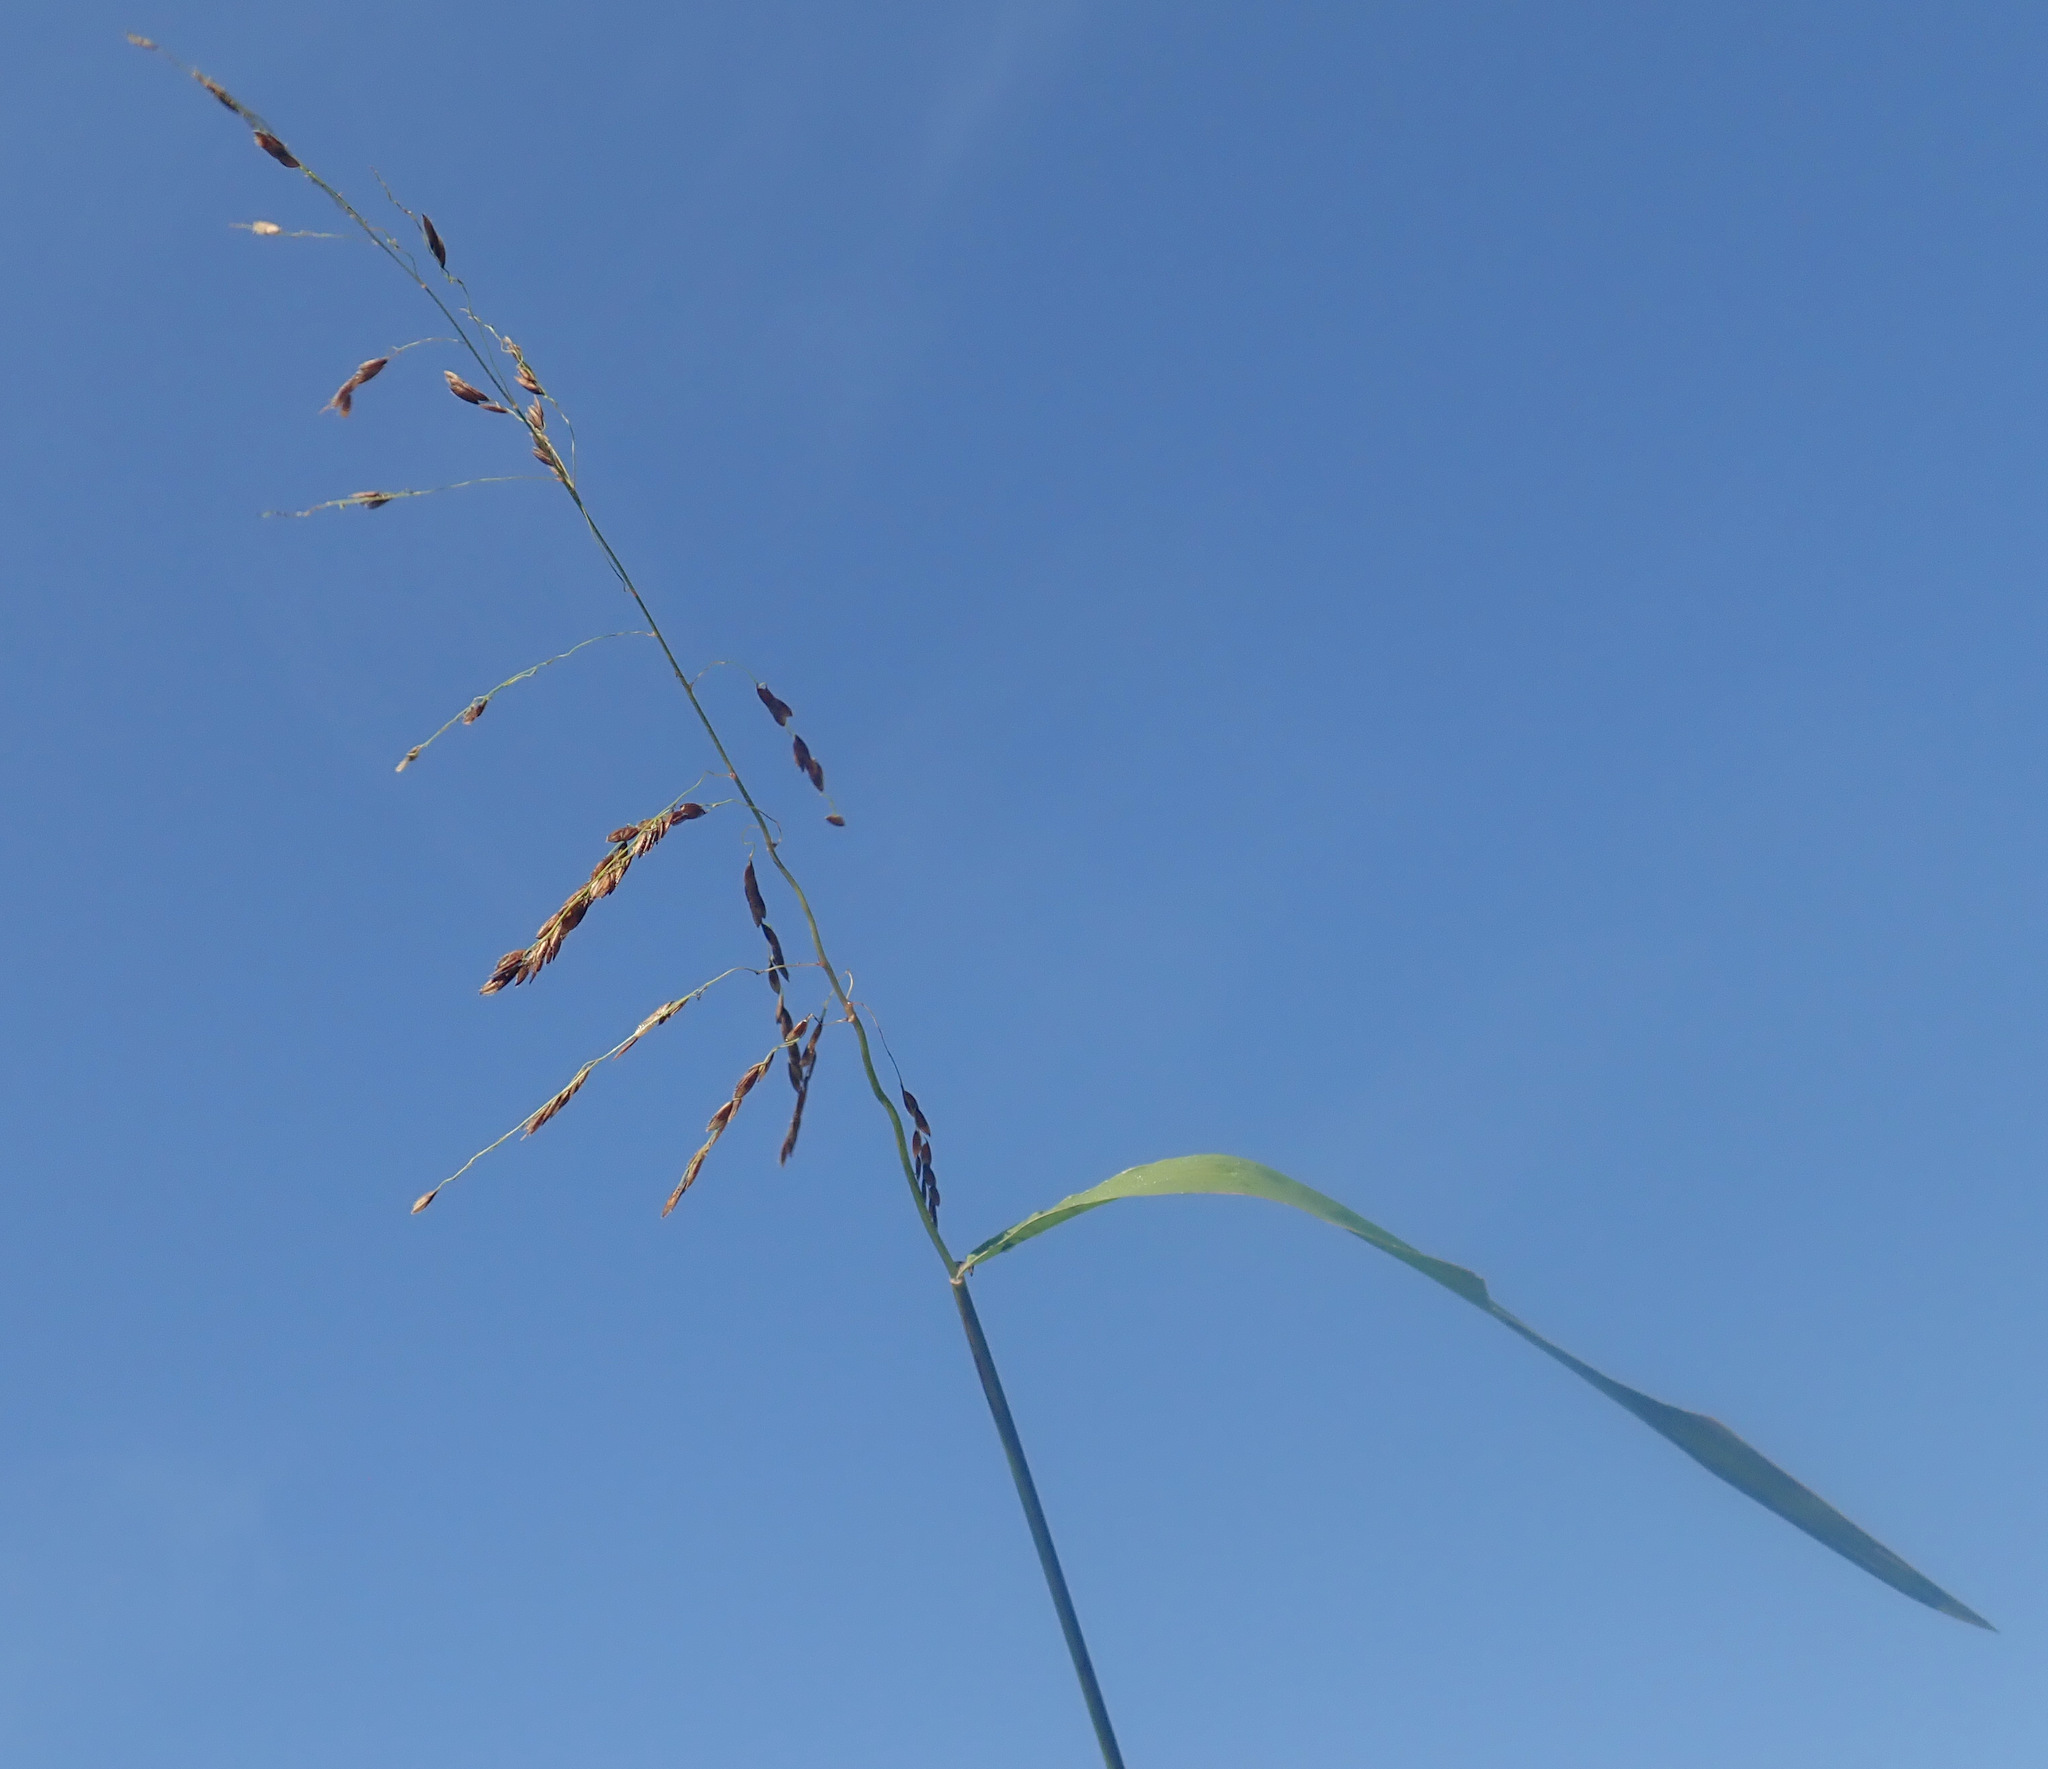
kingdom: Plantae
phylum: Tracheophyta
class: Liliopsida
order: Poales
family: Poaceae
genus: Leersia
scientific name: Leersia oryzoides
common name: Cut-grass
